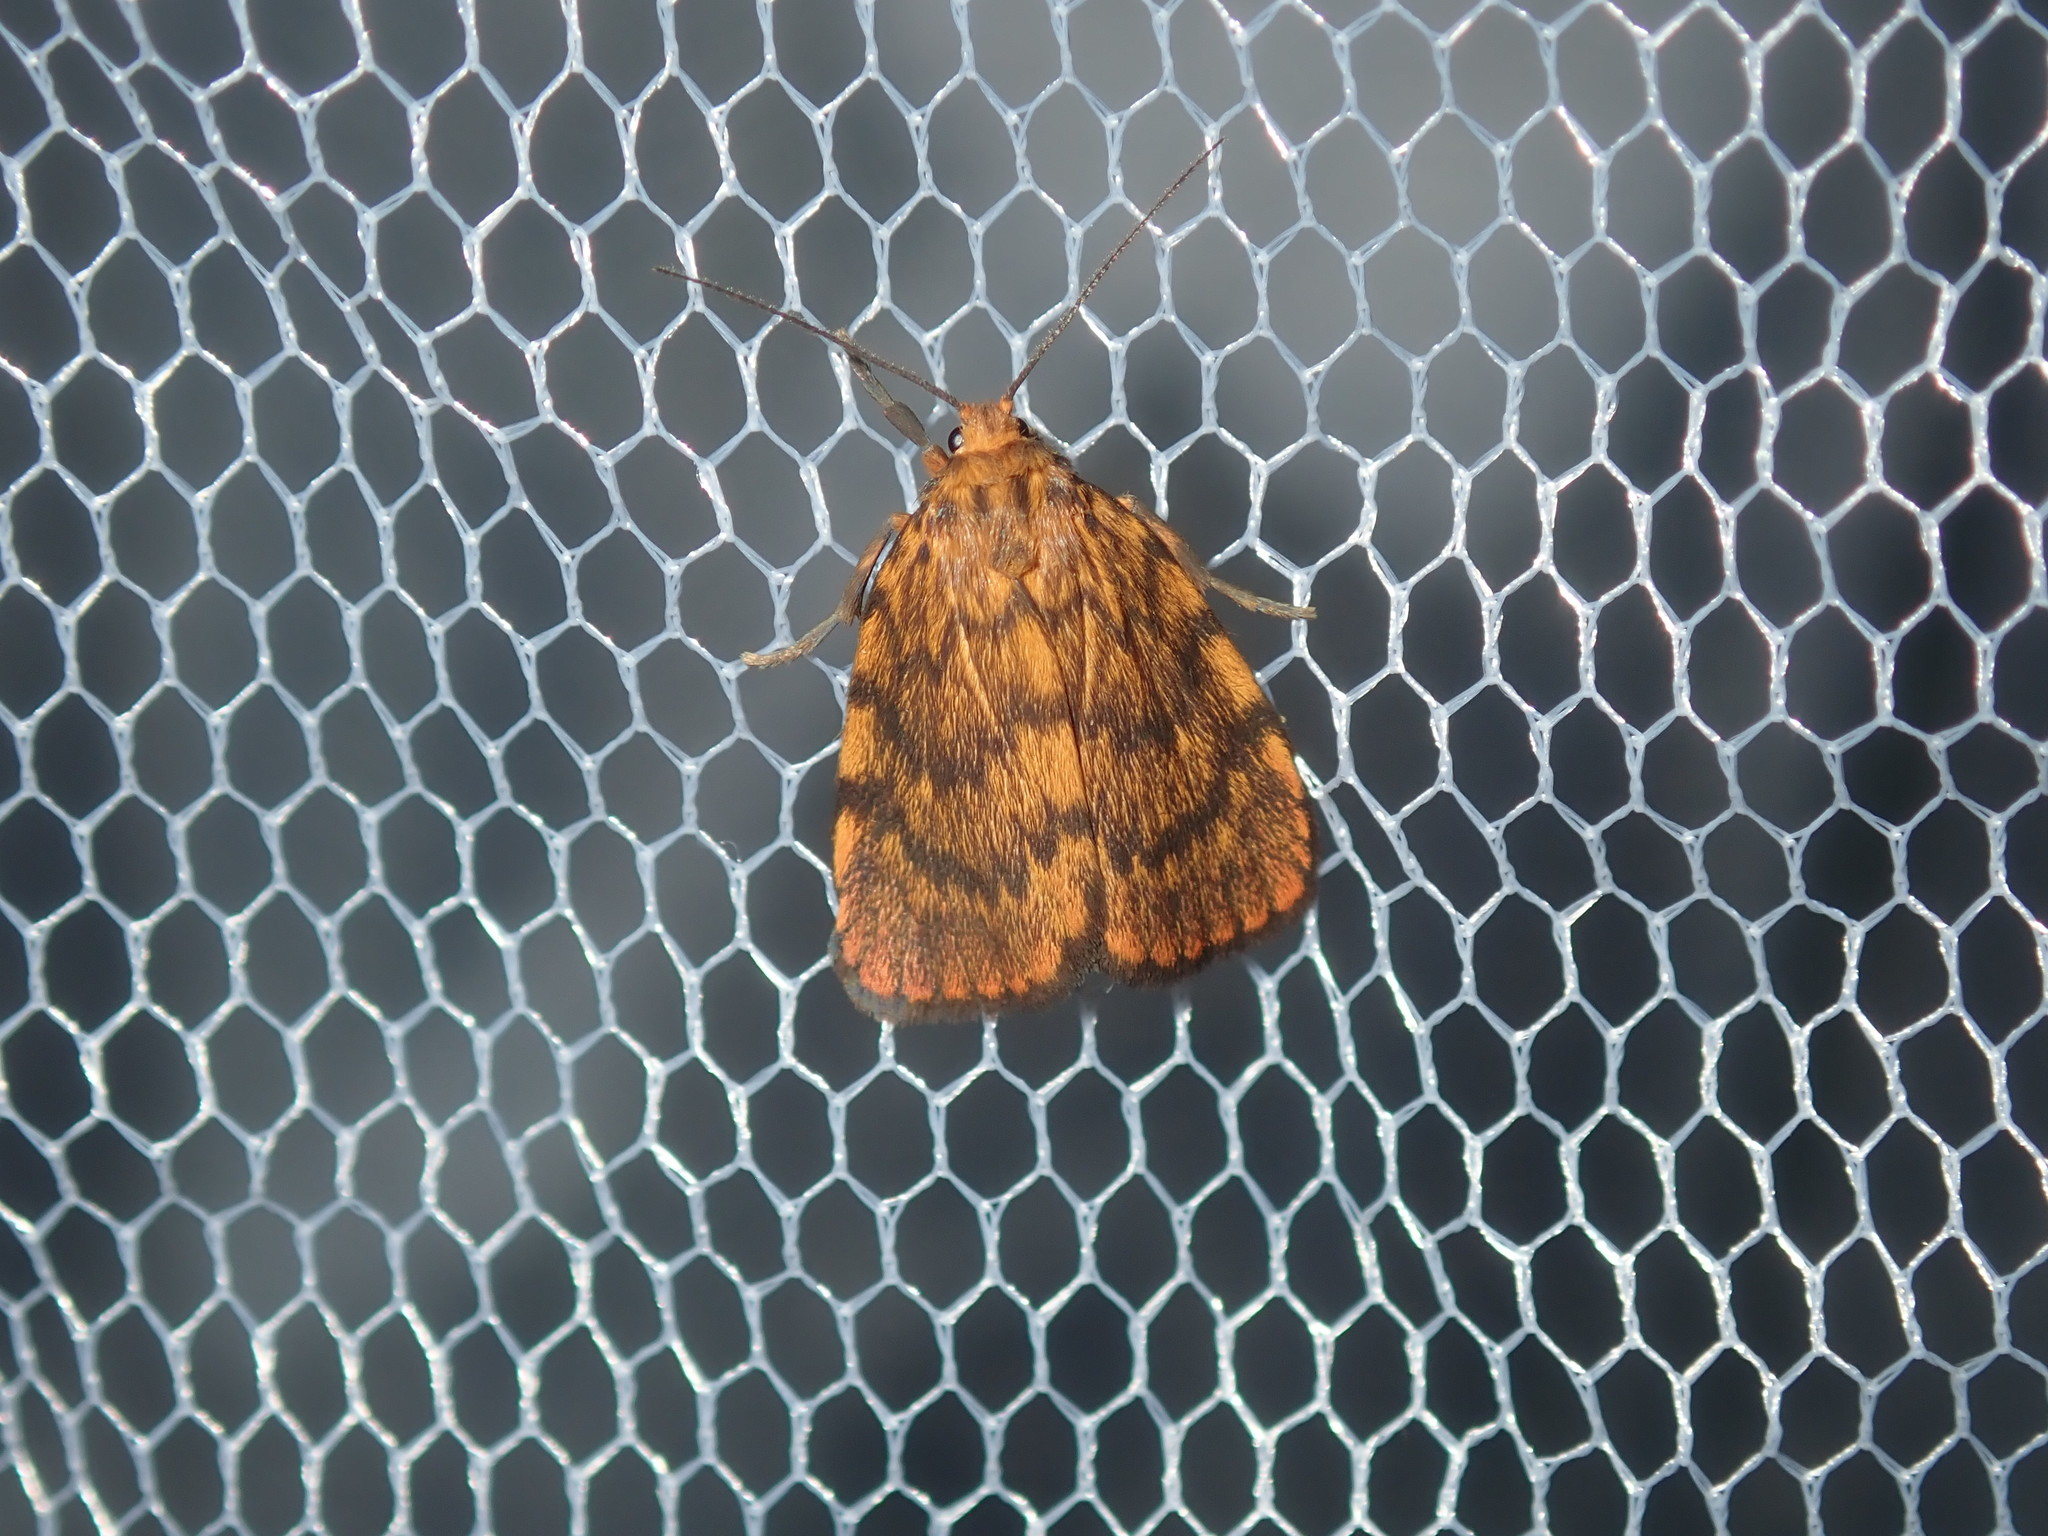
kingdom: Animalia
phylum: Arthropoda
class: Insecta
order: Lepidoptera
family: Erebidae
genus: Cyme
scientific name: Cyme structa
